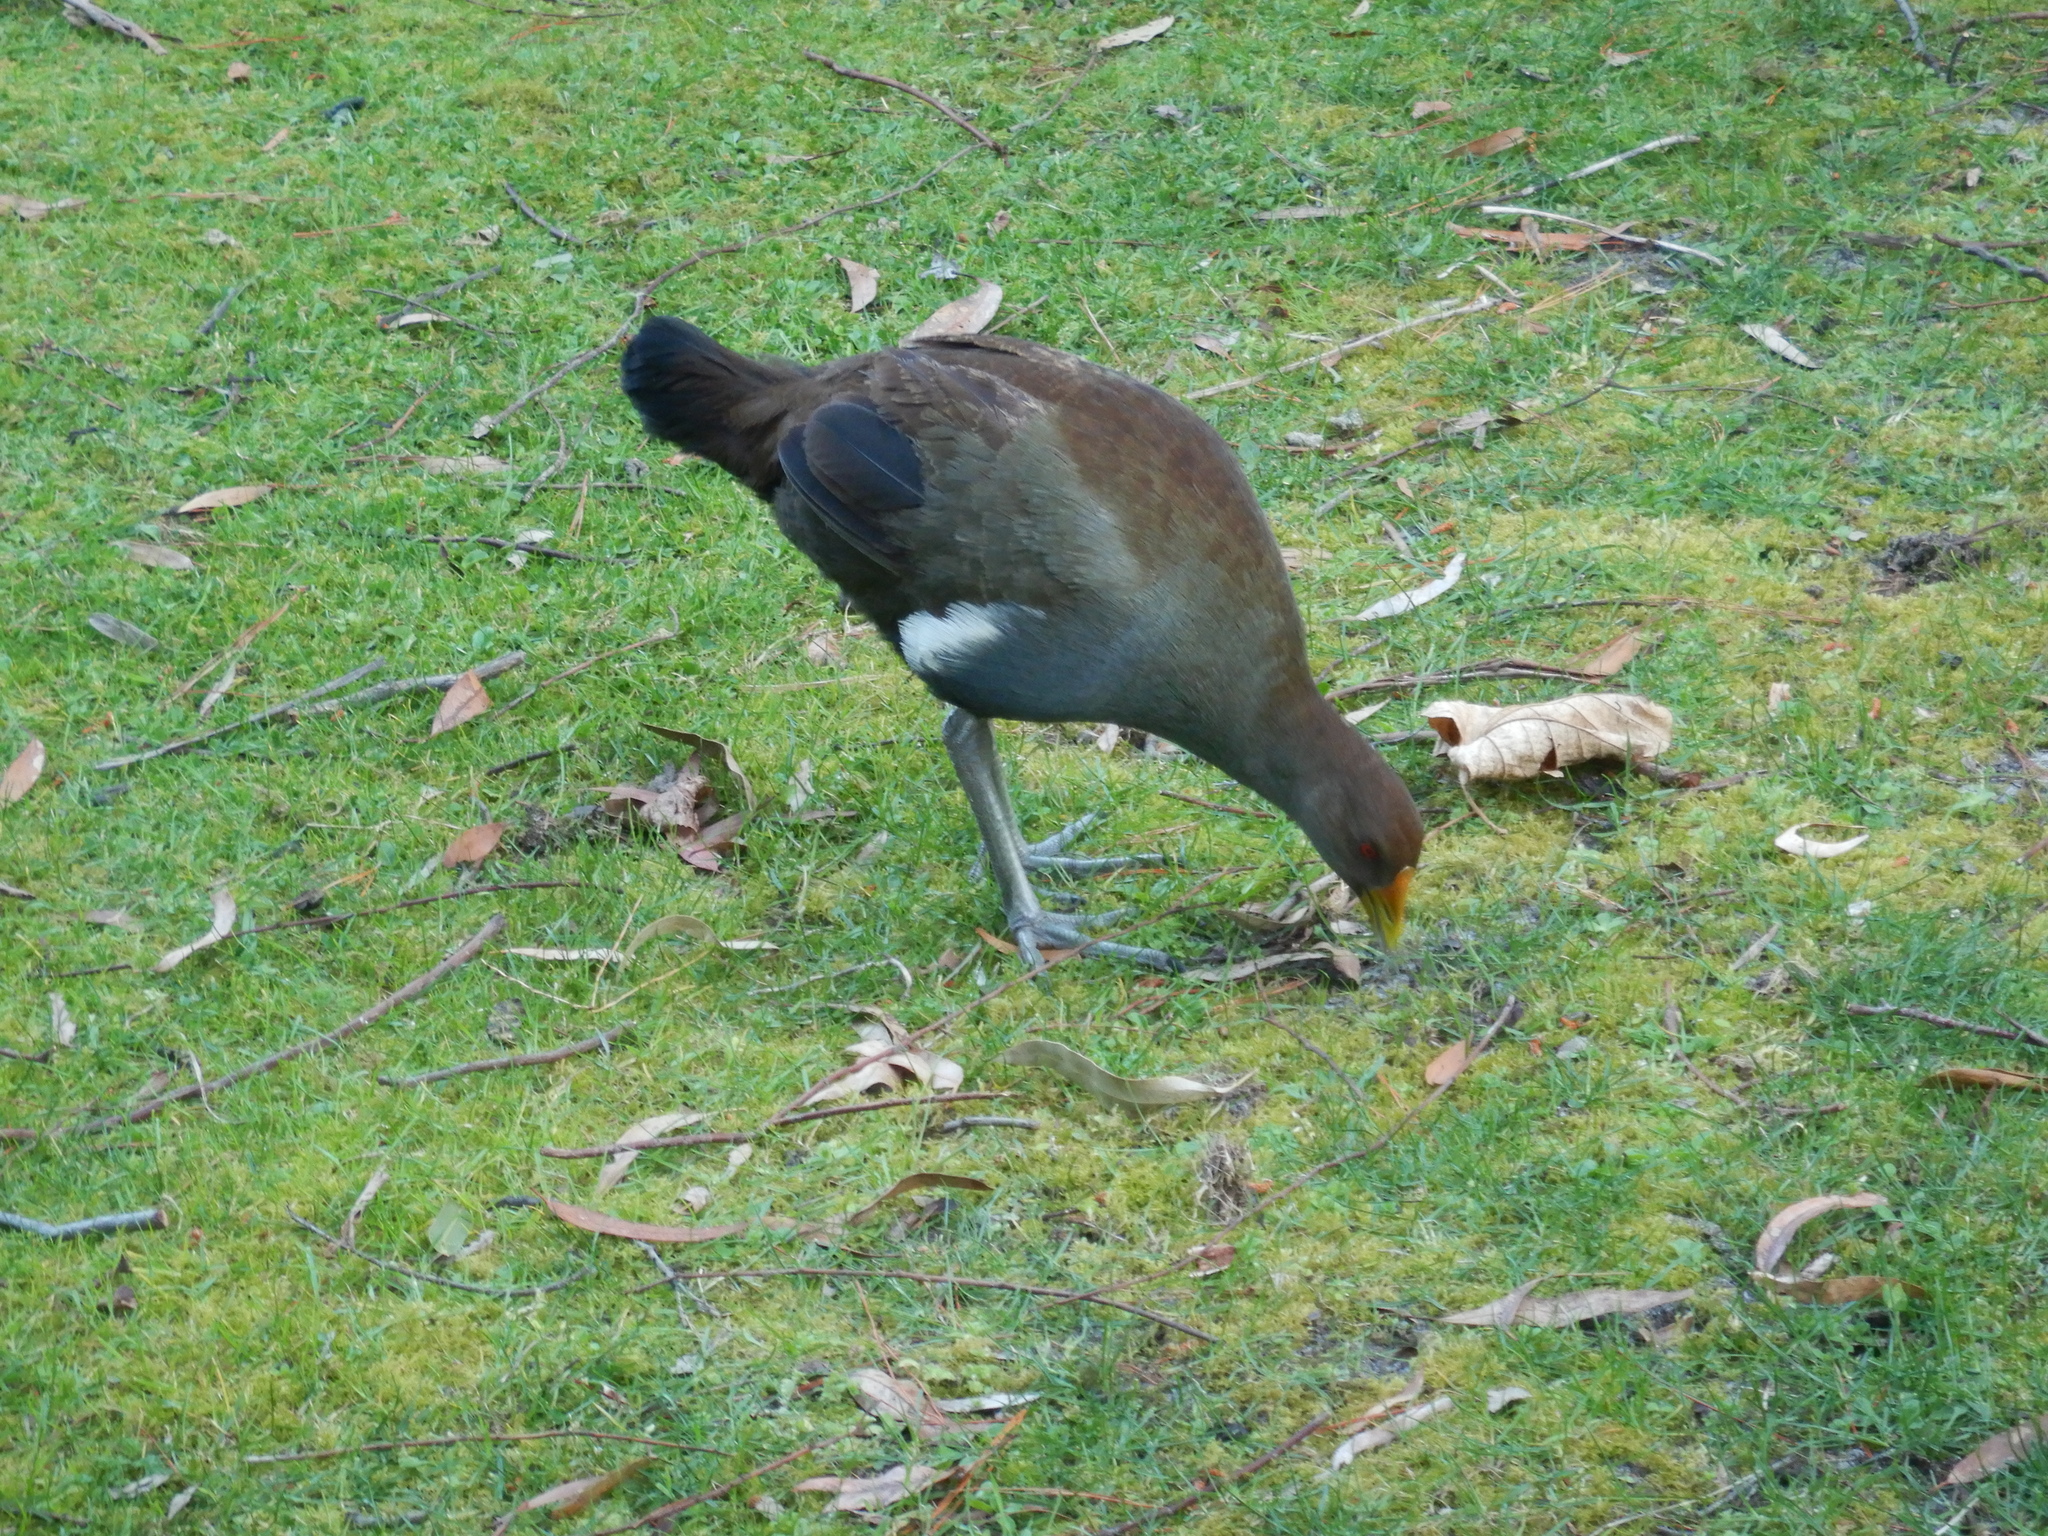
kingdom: Animalia
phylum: Chordata
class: Aves
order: Gruiformes
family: Rallidae
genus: Gallinula
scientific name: Gallinula mortierii
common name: Tasmanian nativehen
